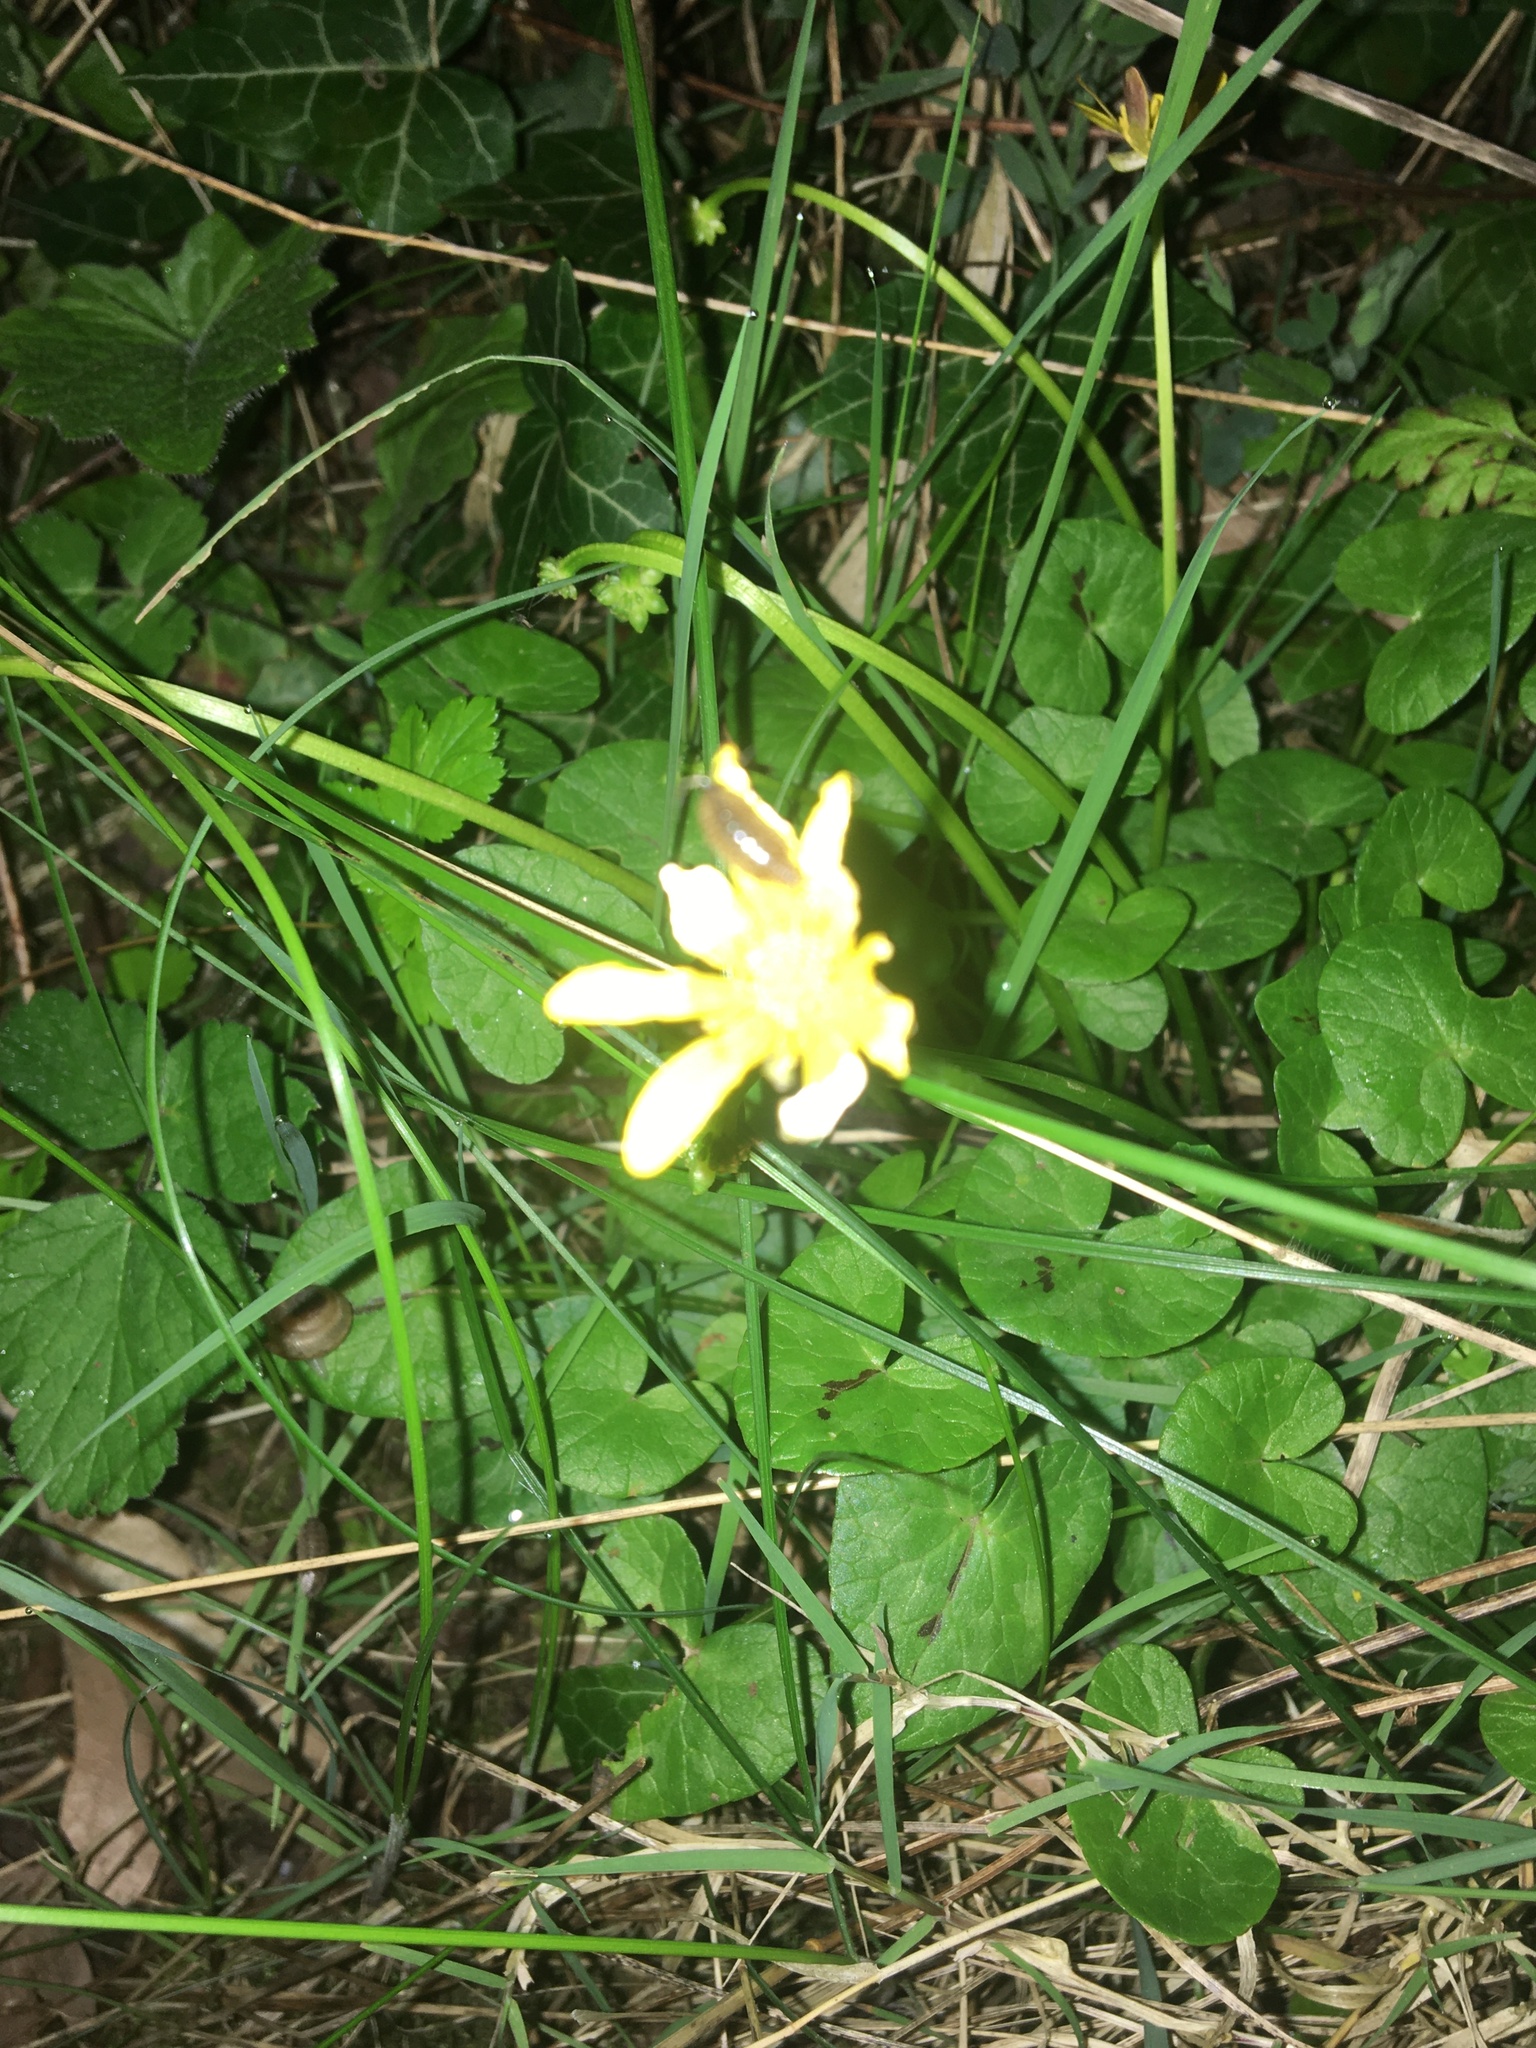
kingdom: Plantae
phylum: Tracheophyta
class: Magnoliopsida
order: Ranunculales
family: Ranunculaceae
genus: Ficaria
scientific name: Ficaria verna
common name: Lesser celandine
